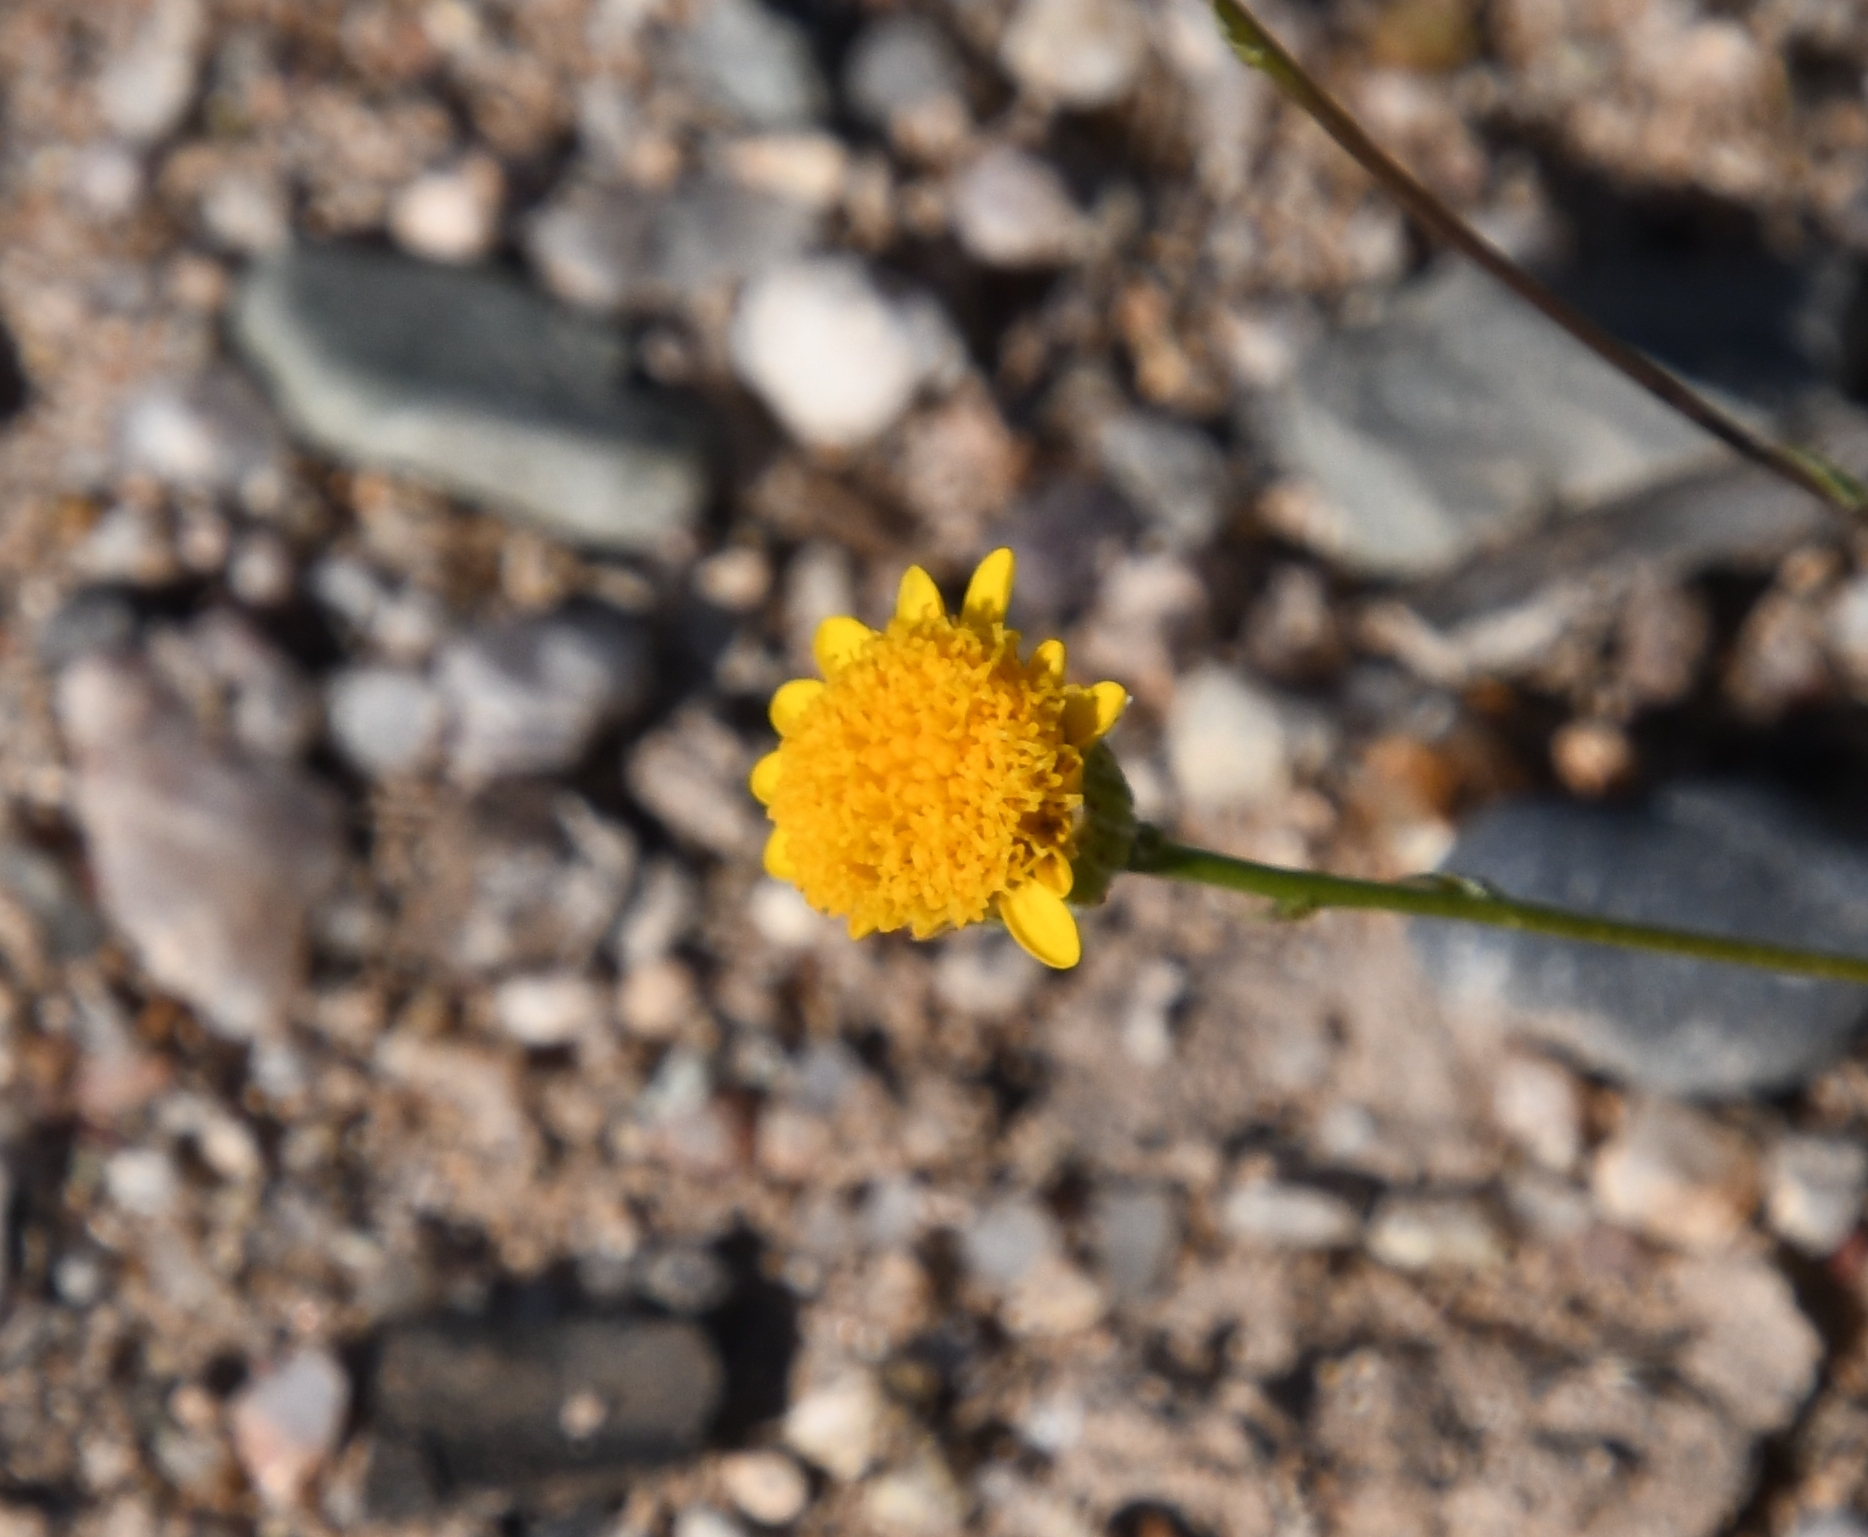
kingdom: Plantae
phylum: Tracheophyta
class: Magnoliopsida
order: Asterales
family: Asteraceae
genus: Thymophylla
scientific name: Thymophylla pentachaeta
